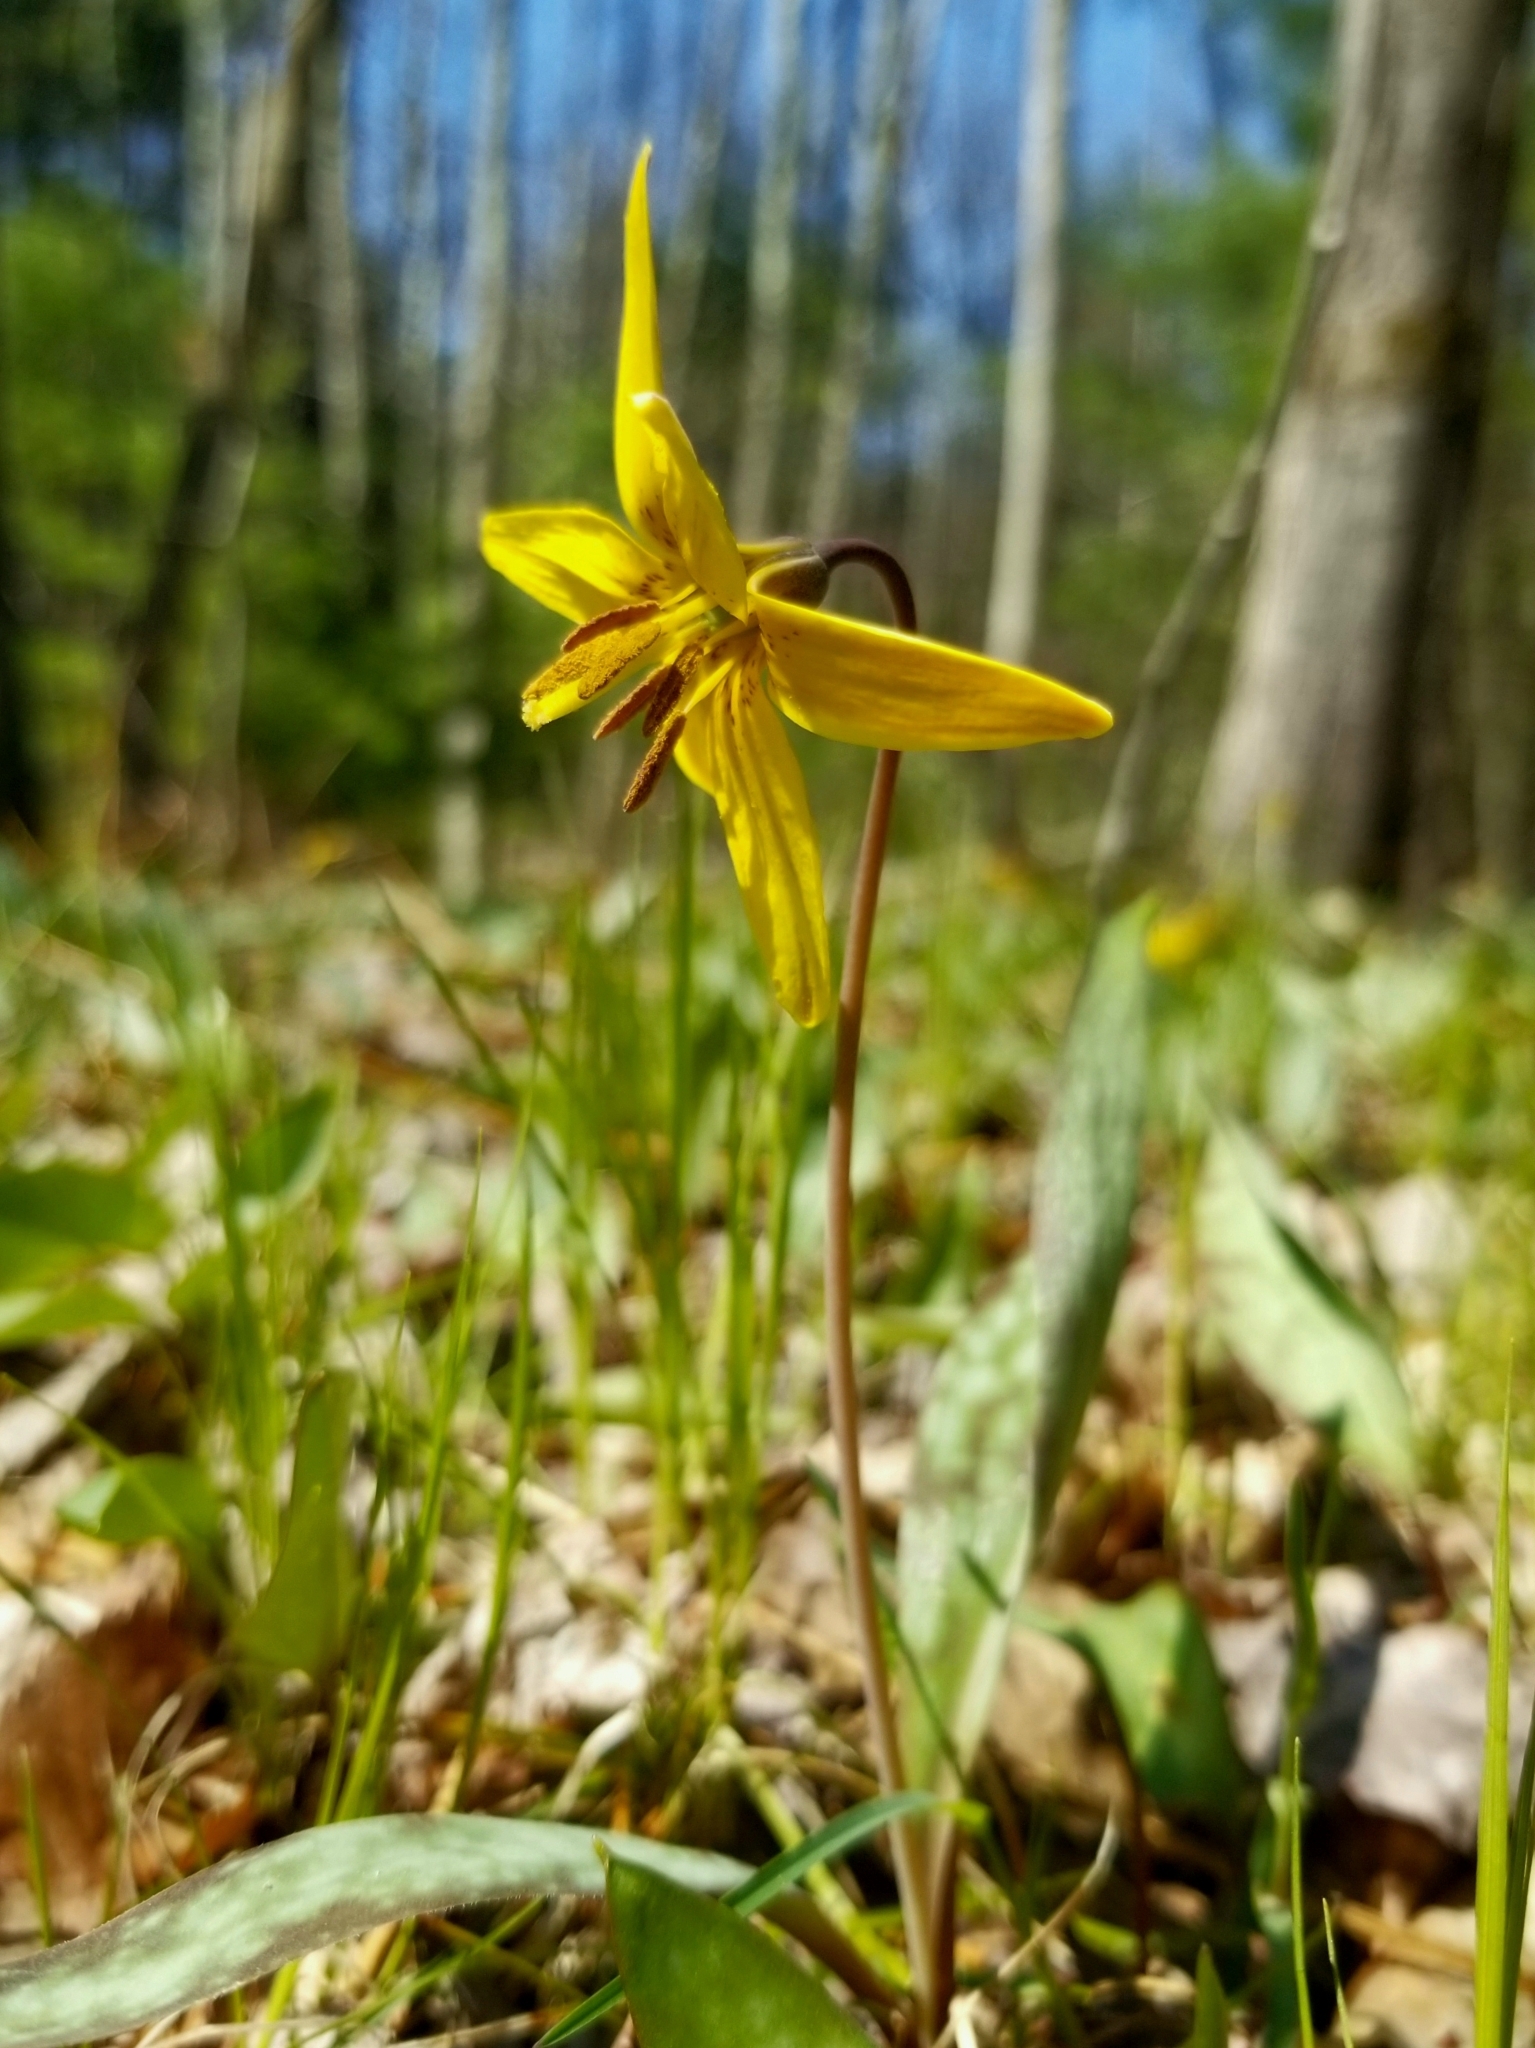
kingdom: Plantae
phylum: Tracheophyta
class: Liliopsida
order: Liliales
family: Liliaceae
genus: Erythronium
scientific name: Erythronium americanum
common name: Yellow adder's-tongue
